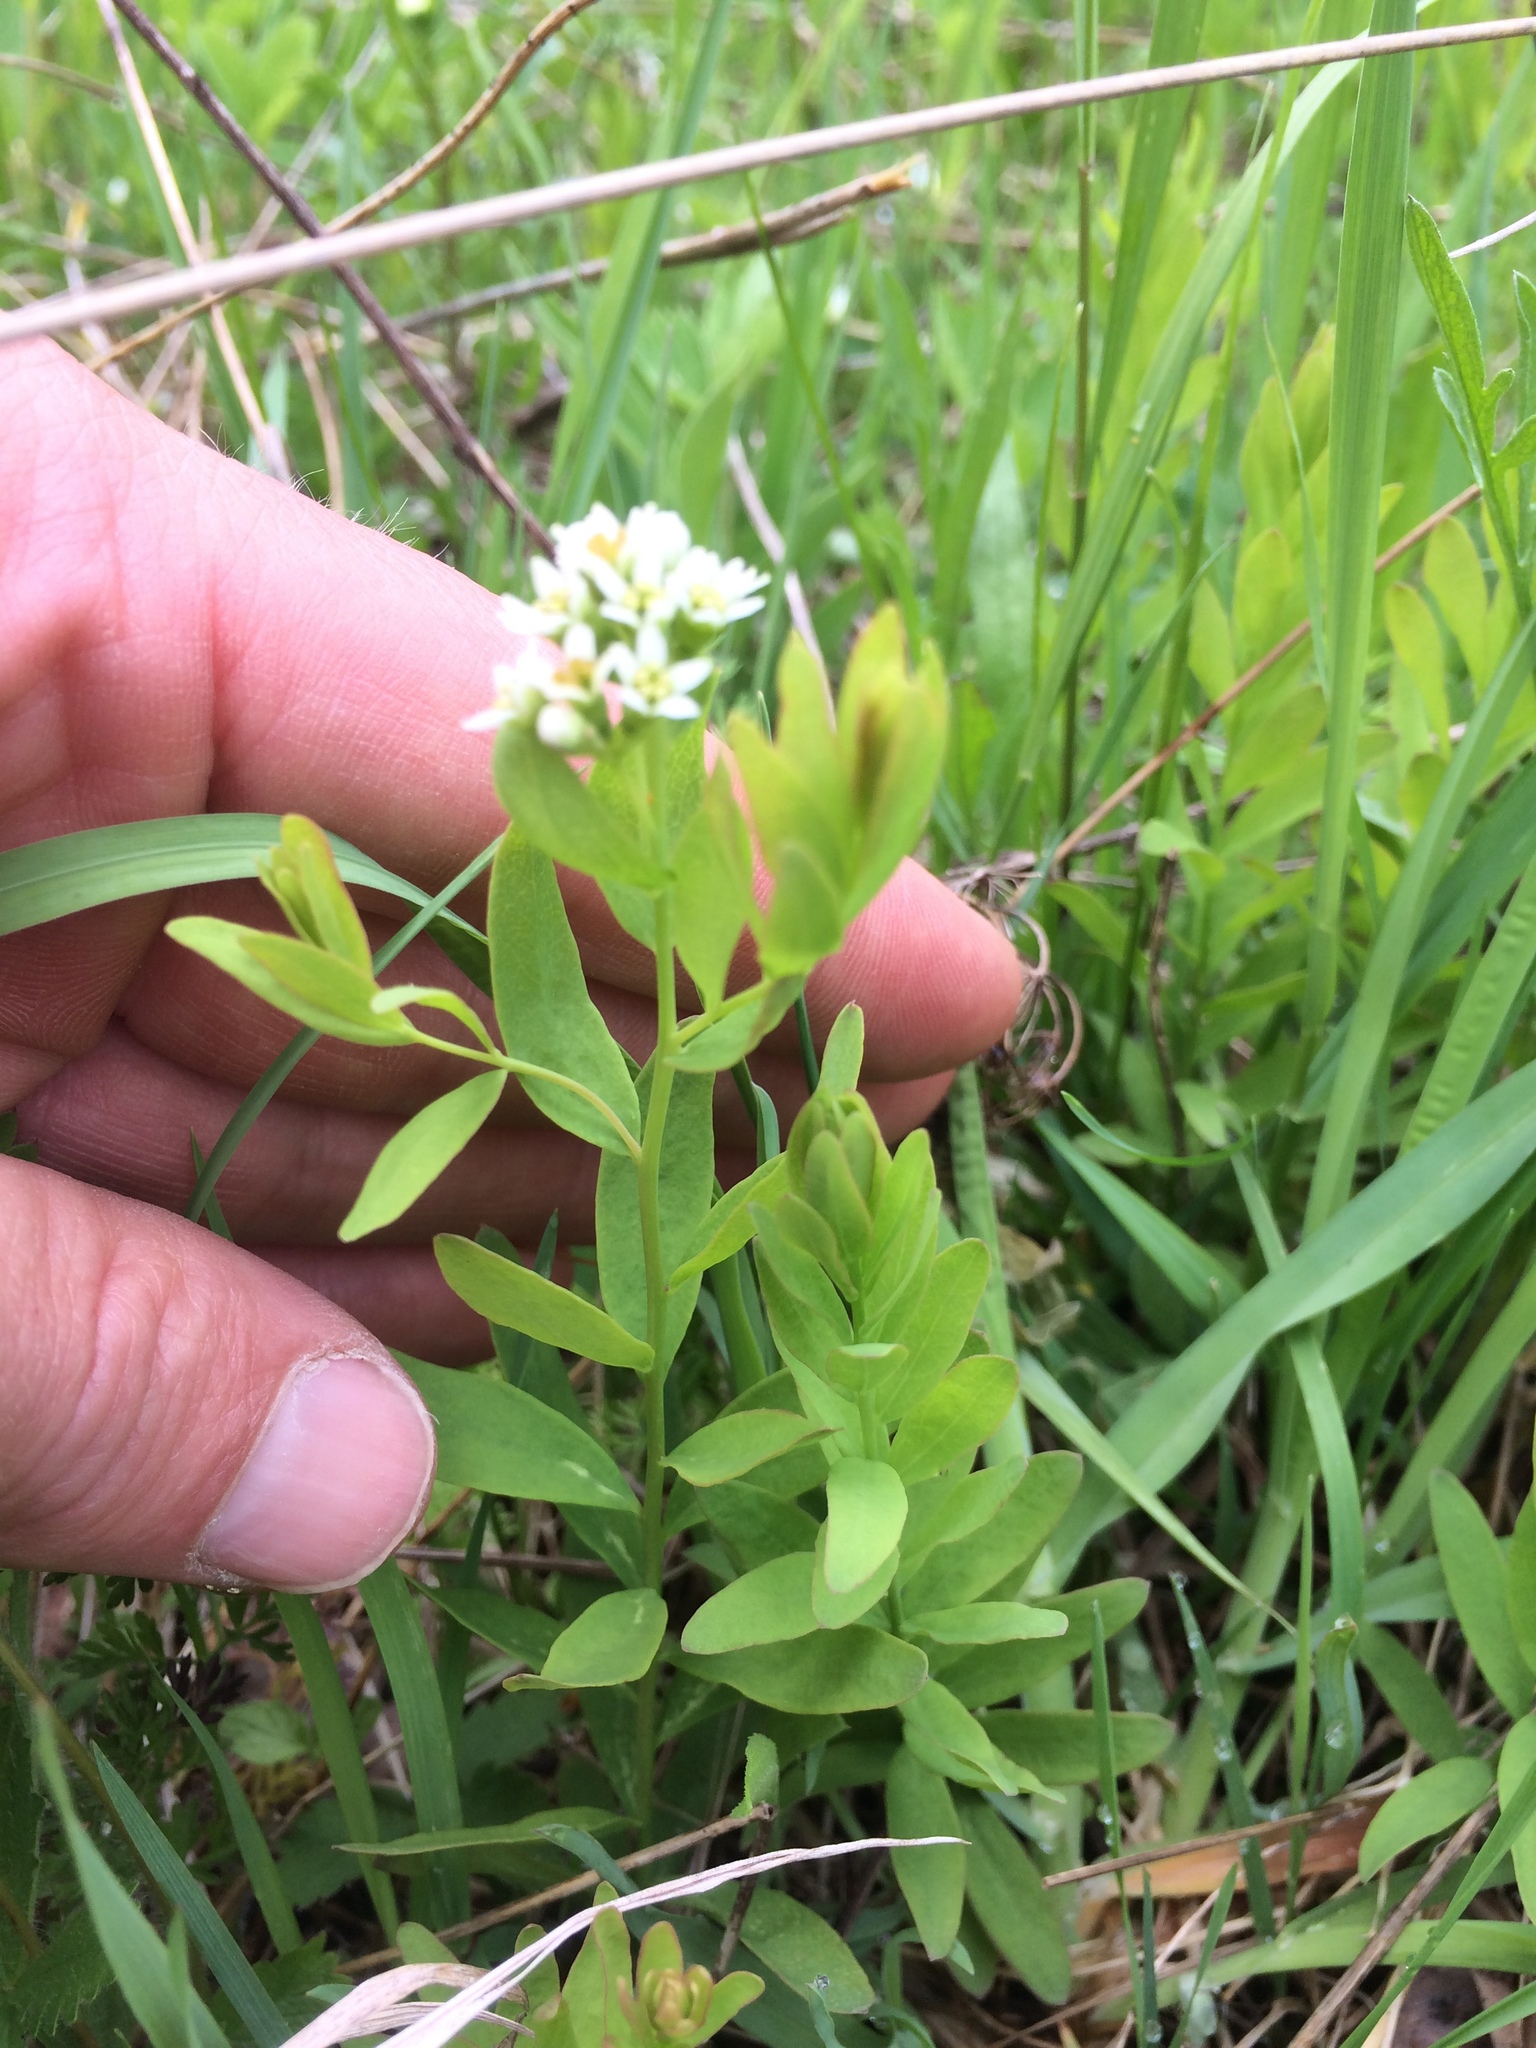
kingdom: Plantae
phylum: Tracheophyta
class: Magnoliopsida
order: Santalales
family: Comandraceae
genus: Comandra
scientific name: Comandra umbellata
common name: Bastard toadflax
